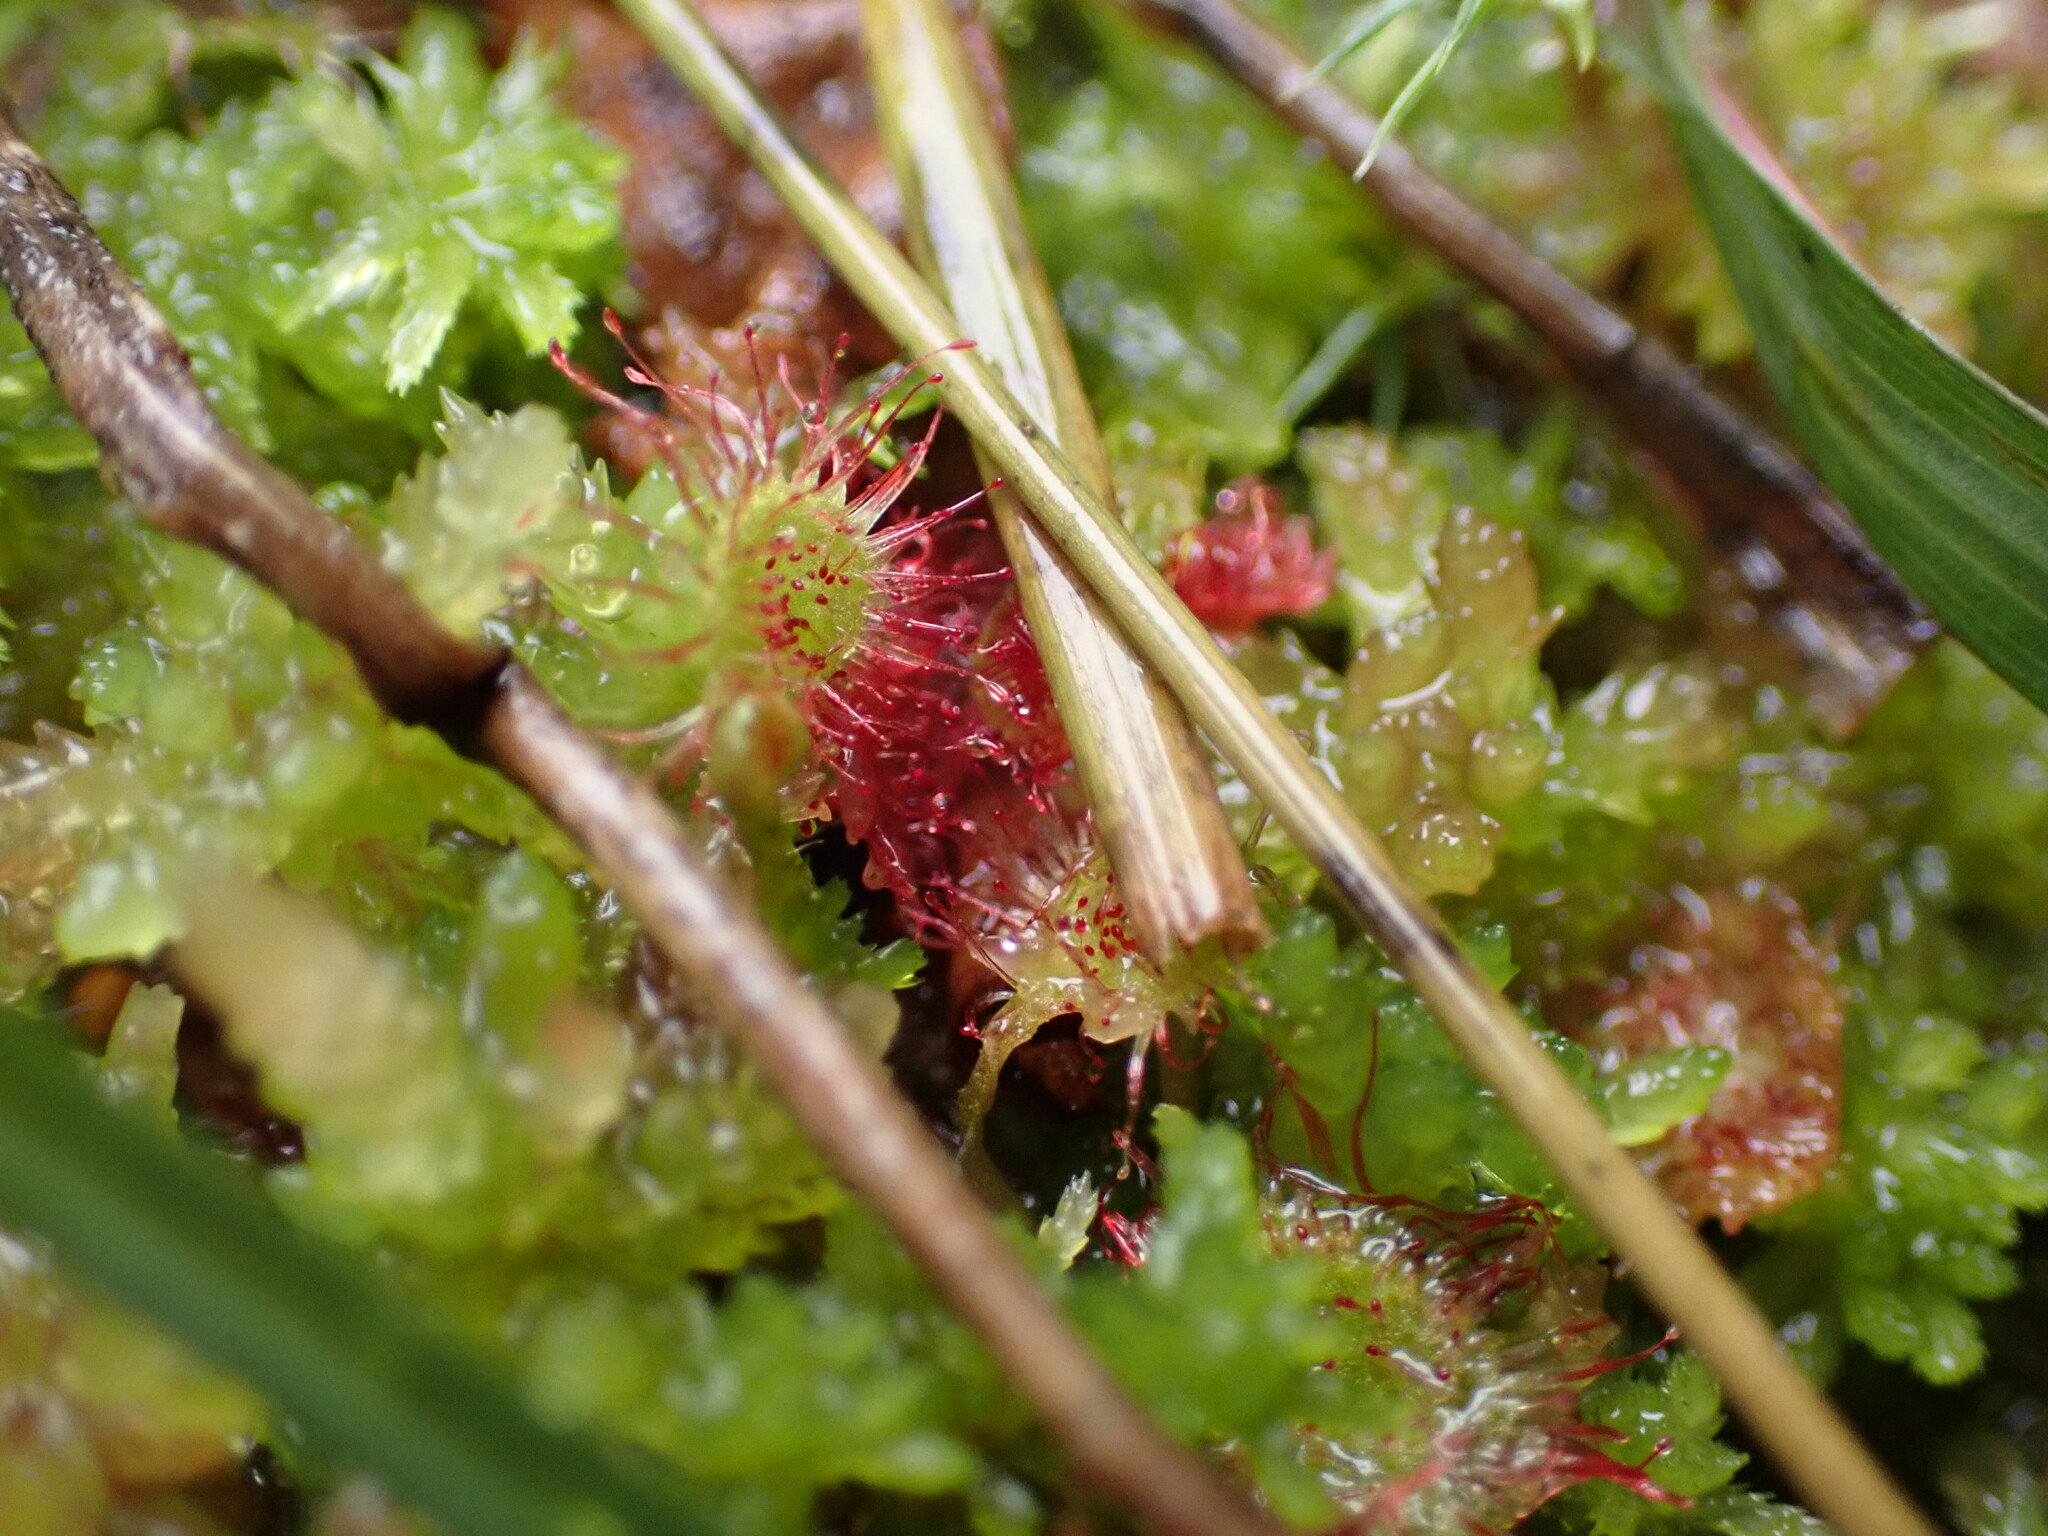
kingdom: Plantae
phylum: Tracheophyta
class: Magnoliopsida
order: Caryophyllales
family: Droseraceae
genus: Drosera
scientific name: Drosera rotundifolia
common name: Round-leaved sundew
